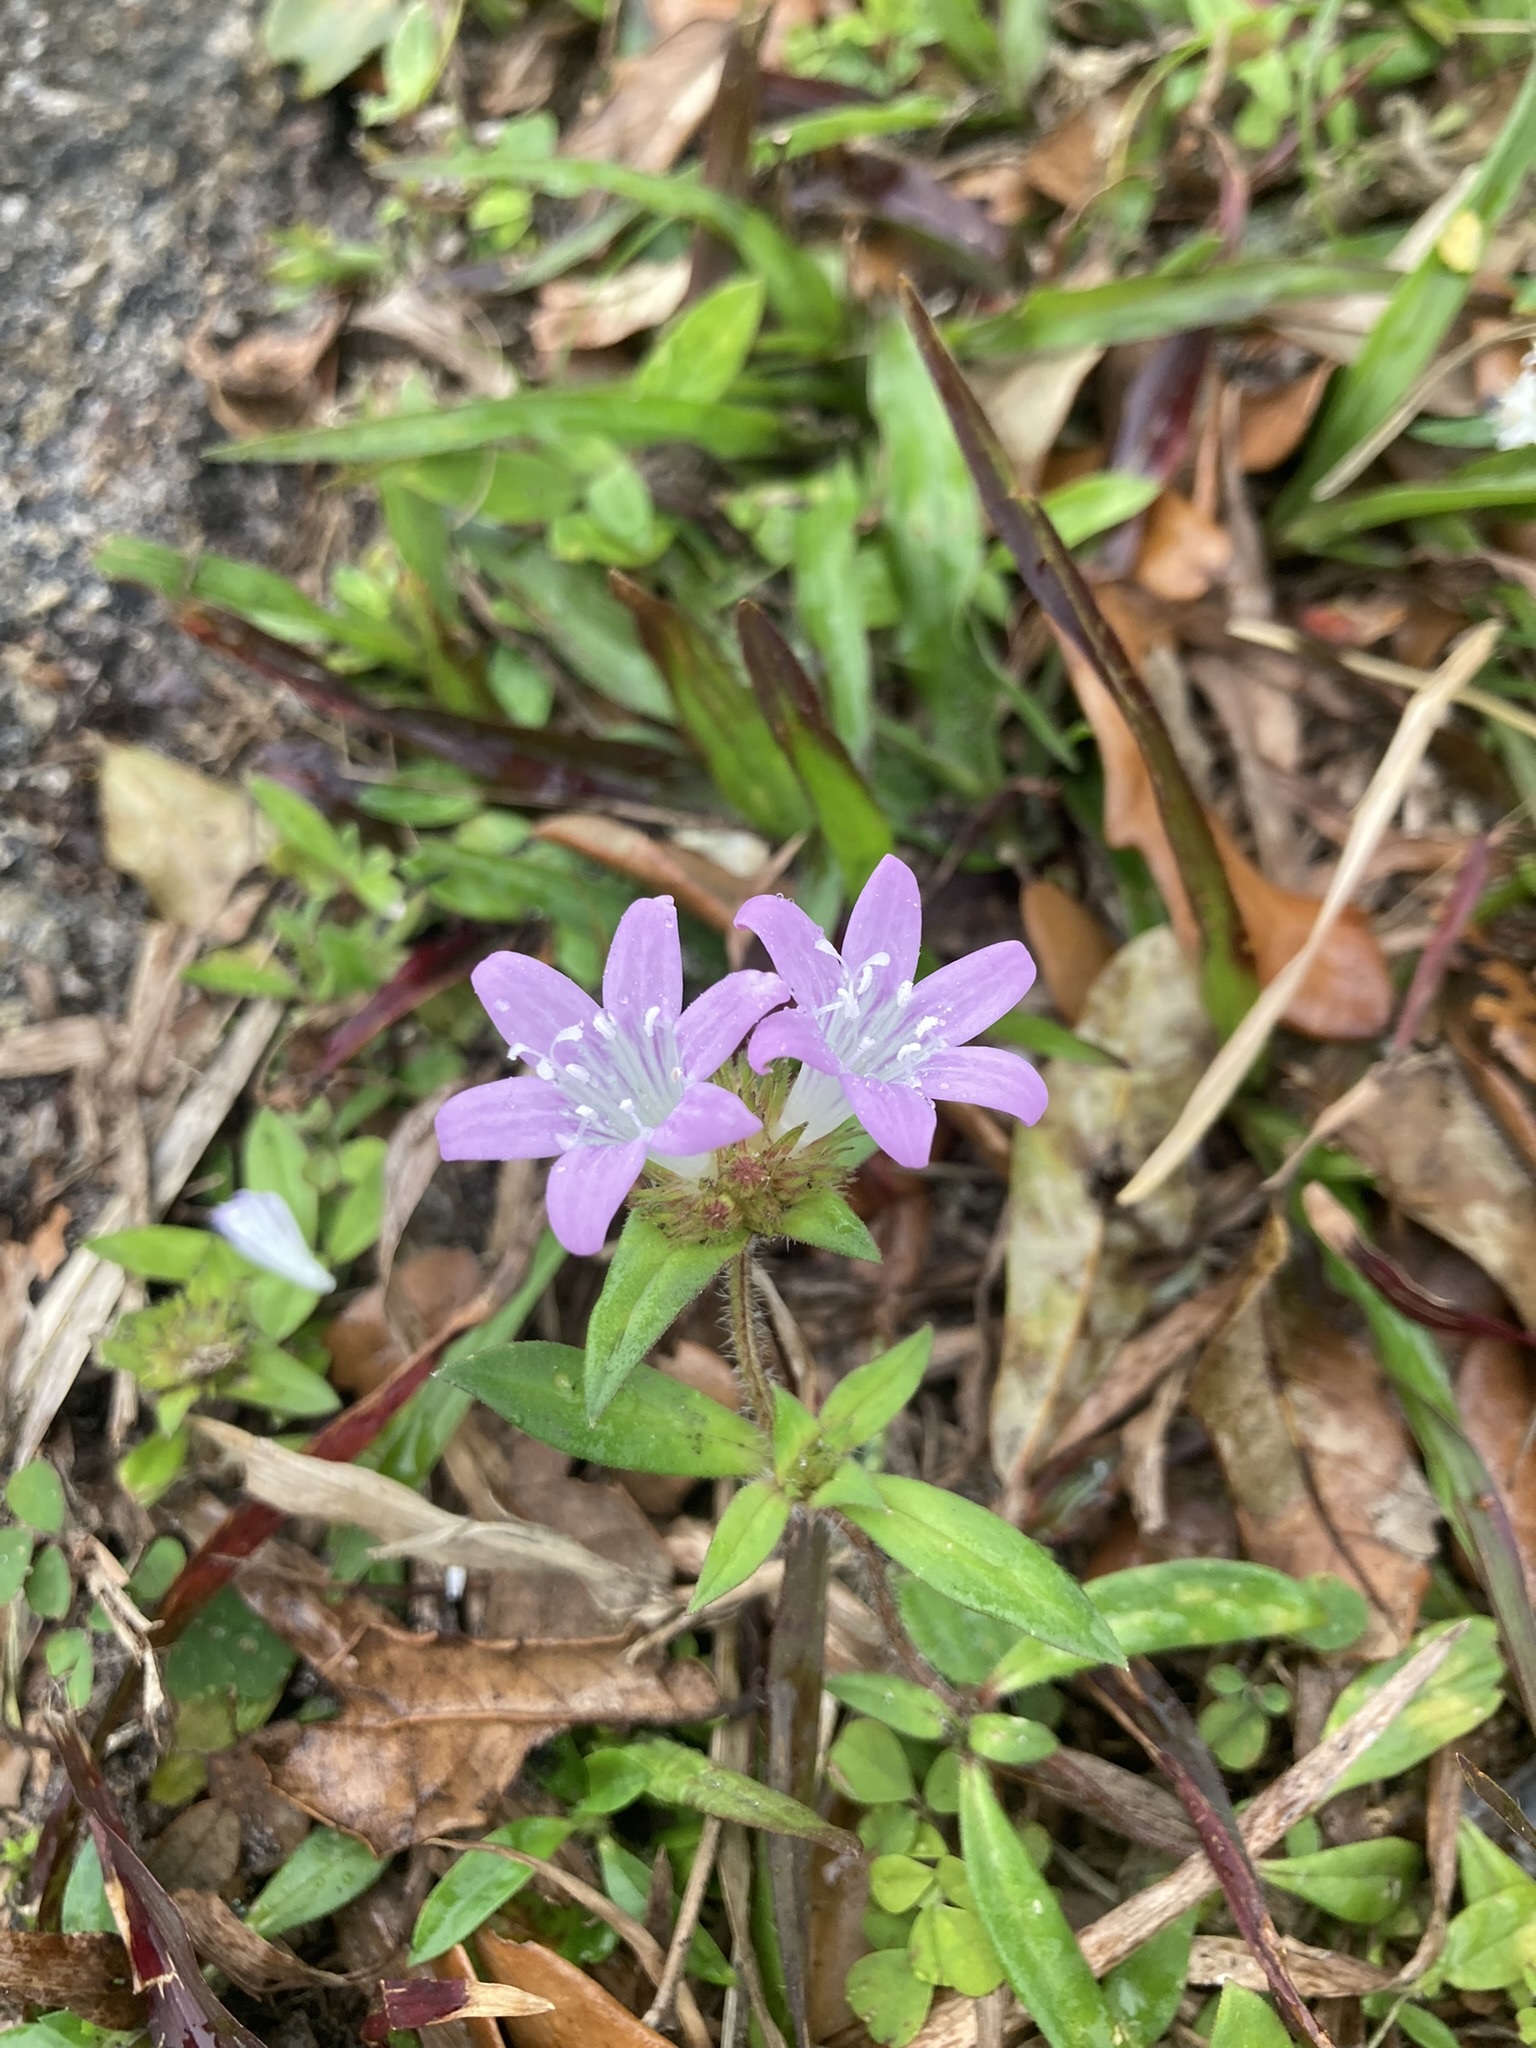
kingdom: Plantae
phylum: Tracheophyta
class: Magnoliopsida
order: Gentianales
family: Rubiaceae
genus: Richardia
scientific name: Richardia grandiflora
